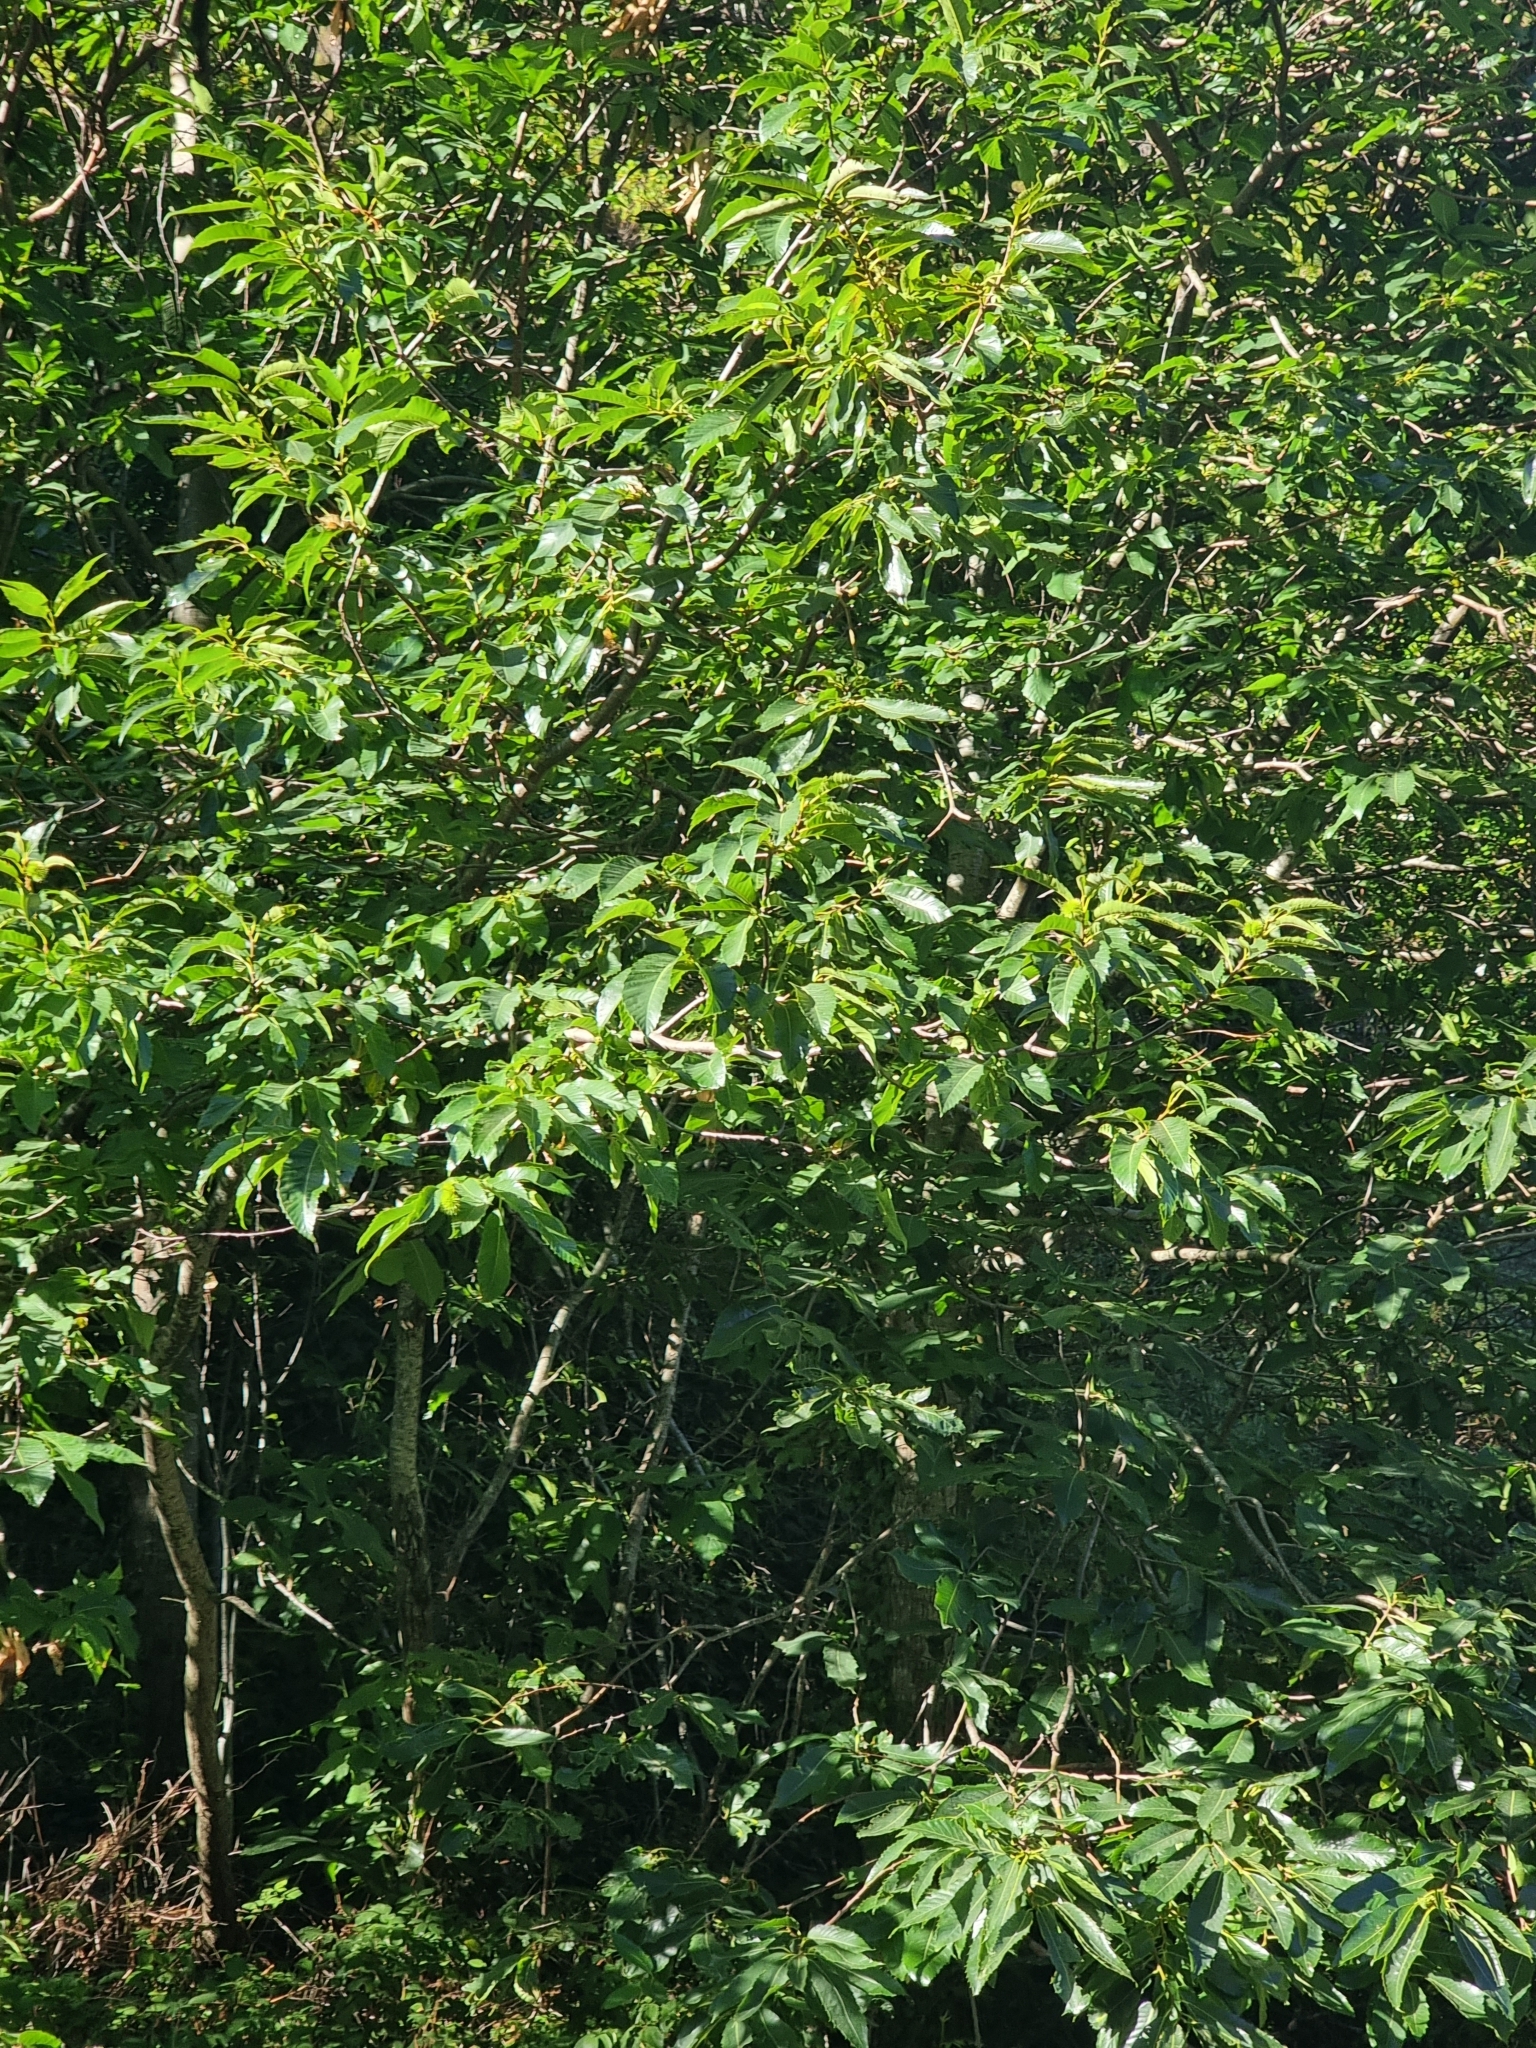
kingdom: Plantae
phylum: Tracheophyta
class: Magnoliopsida
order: Fagales
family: Fagaceae
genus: Castanea
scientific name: Castanea sativa
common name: Sweet chestnut
